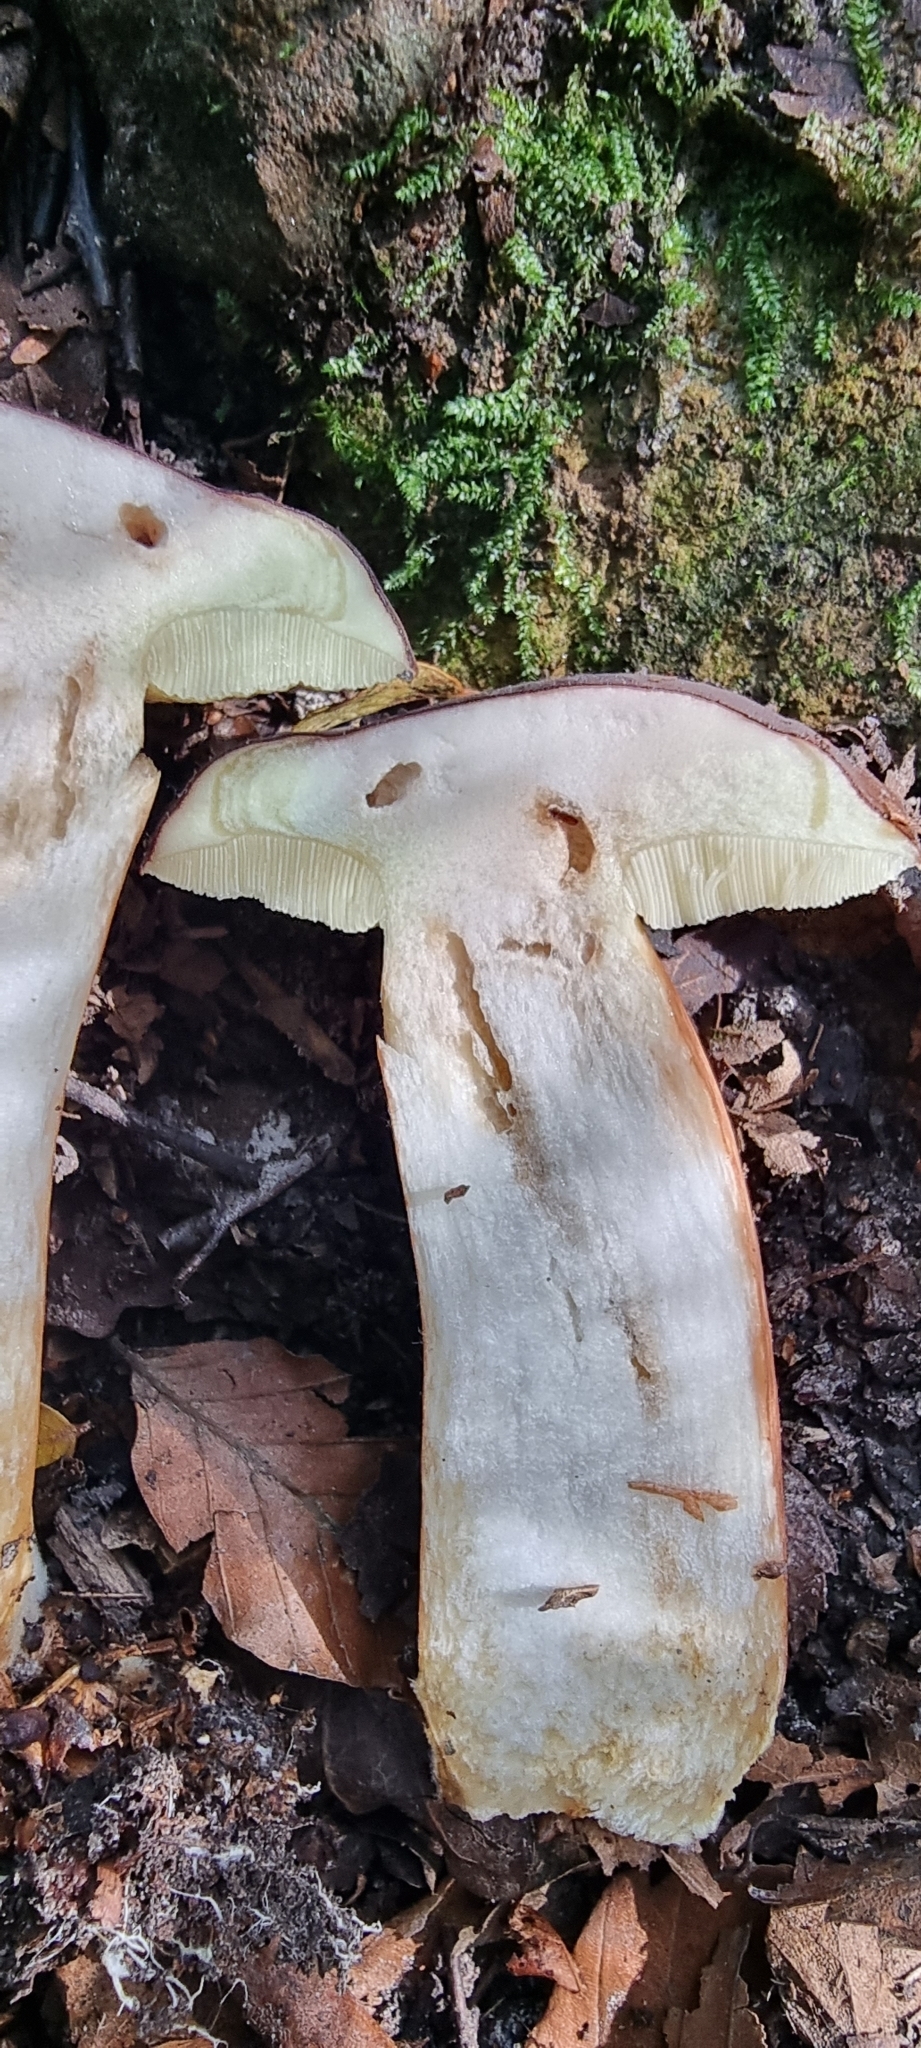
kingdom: Fungi
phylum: Basidiomycota
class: Agaricomycetes
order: Boletales
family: Boletaceae
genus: Imleria
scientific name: Imleria badia
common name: Bay bolete
